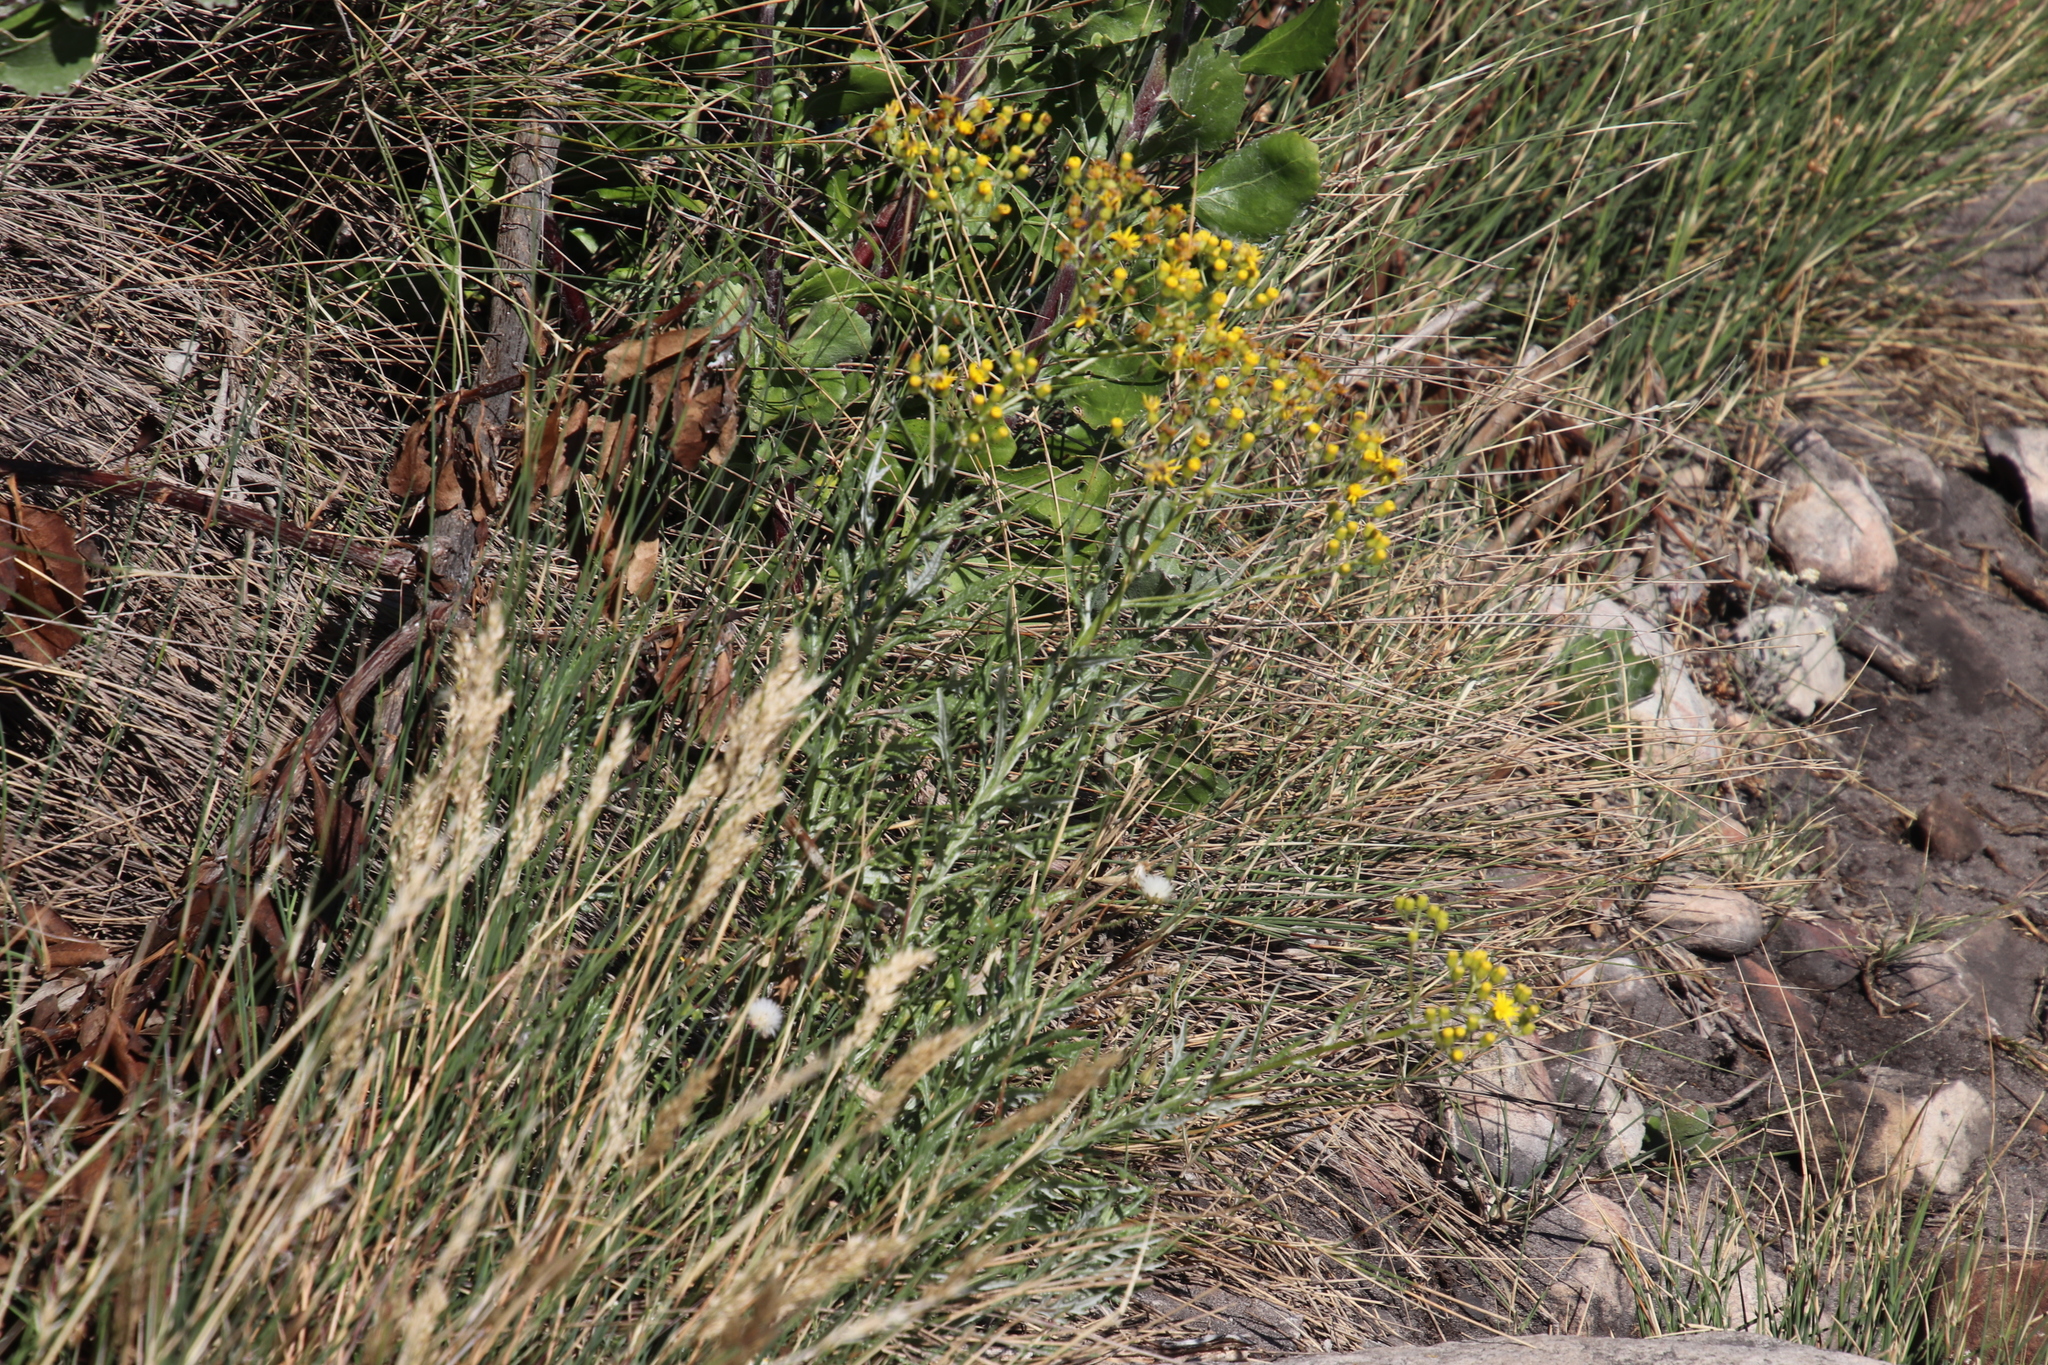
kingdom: Plantae
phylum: Tracheophyta
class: Magnoliopsida
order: Asterales
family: Asteraceae
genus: Senecio
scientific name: Senecio pterophorus
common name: Shoddy ragwort
